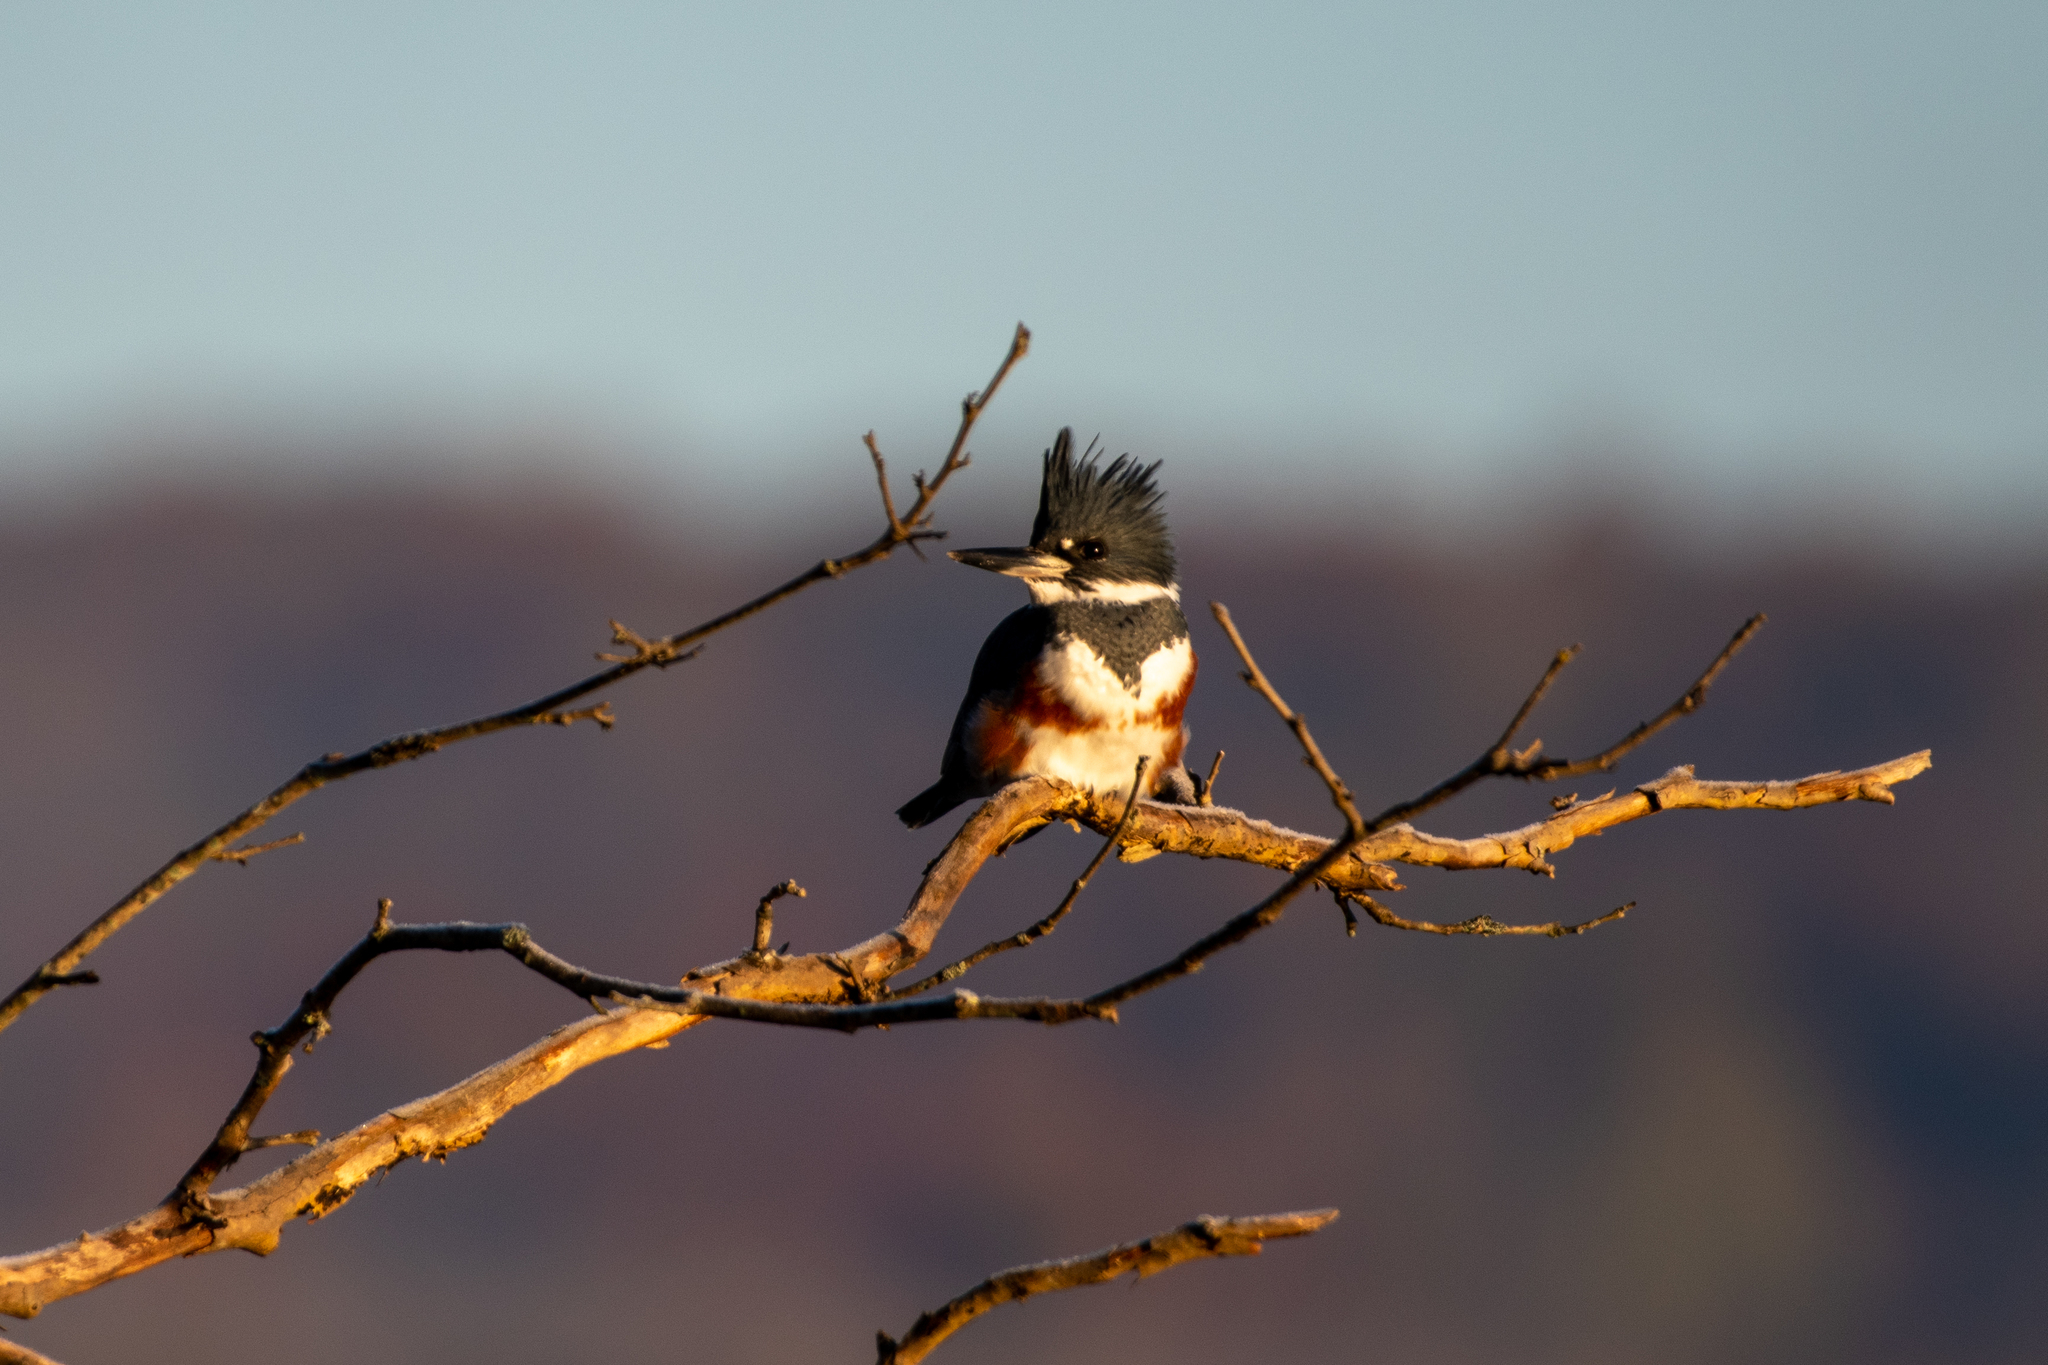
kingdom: Animalia
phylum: Chordata
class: Aves
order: Coraciiformes
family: Alcedinidae
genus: Megaceryle
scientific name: Megaceryle alcyon
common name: Belted kingfisher
